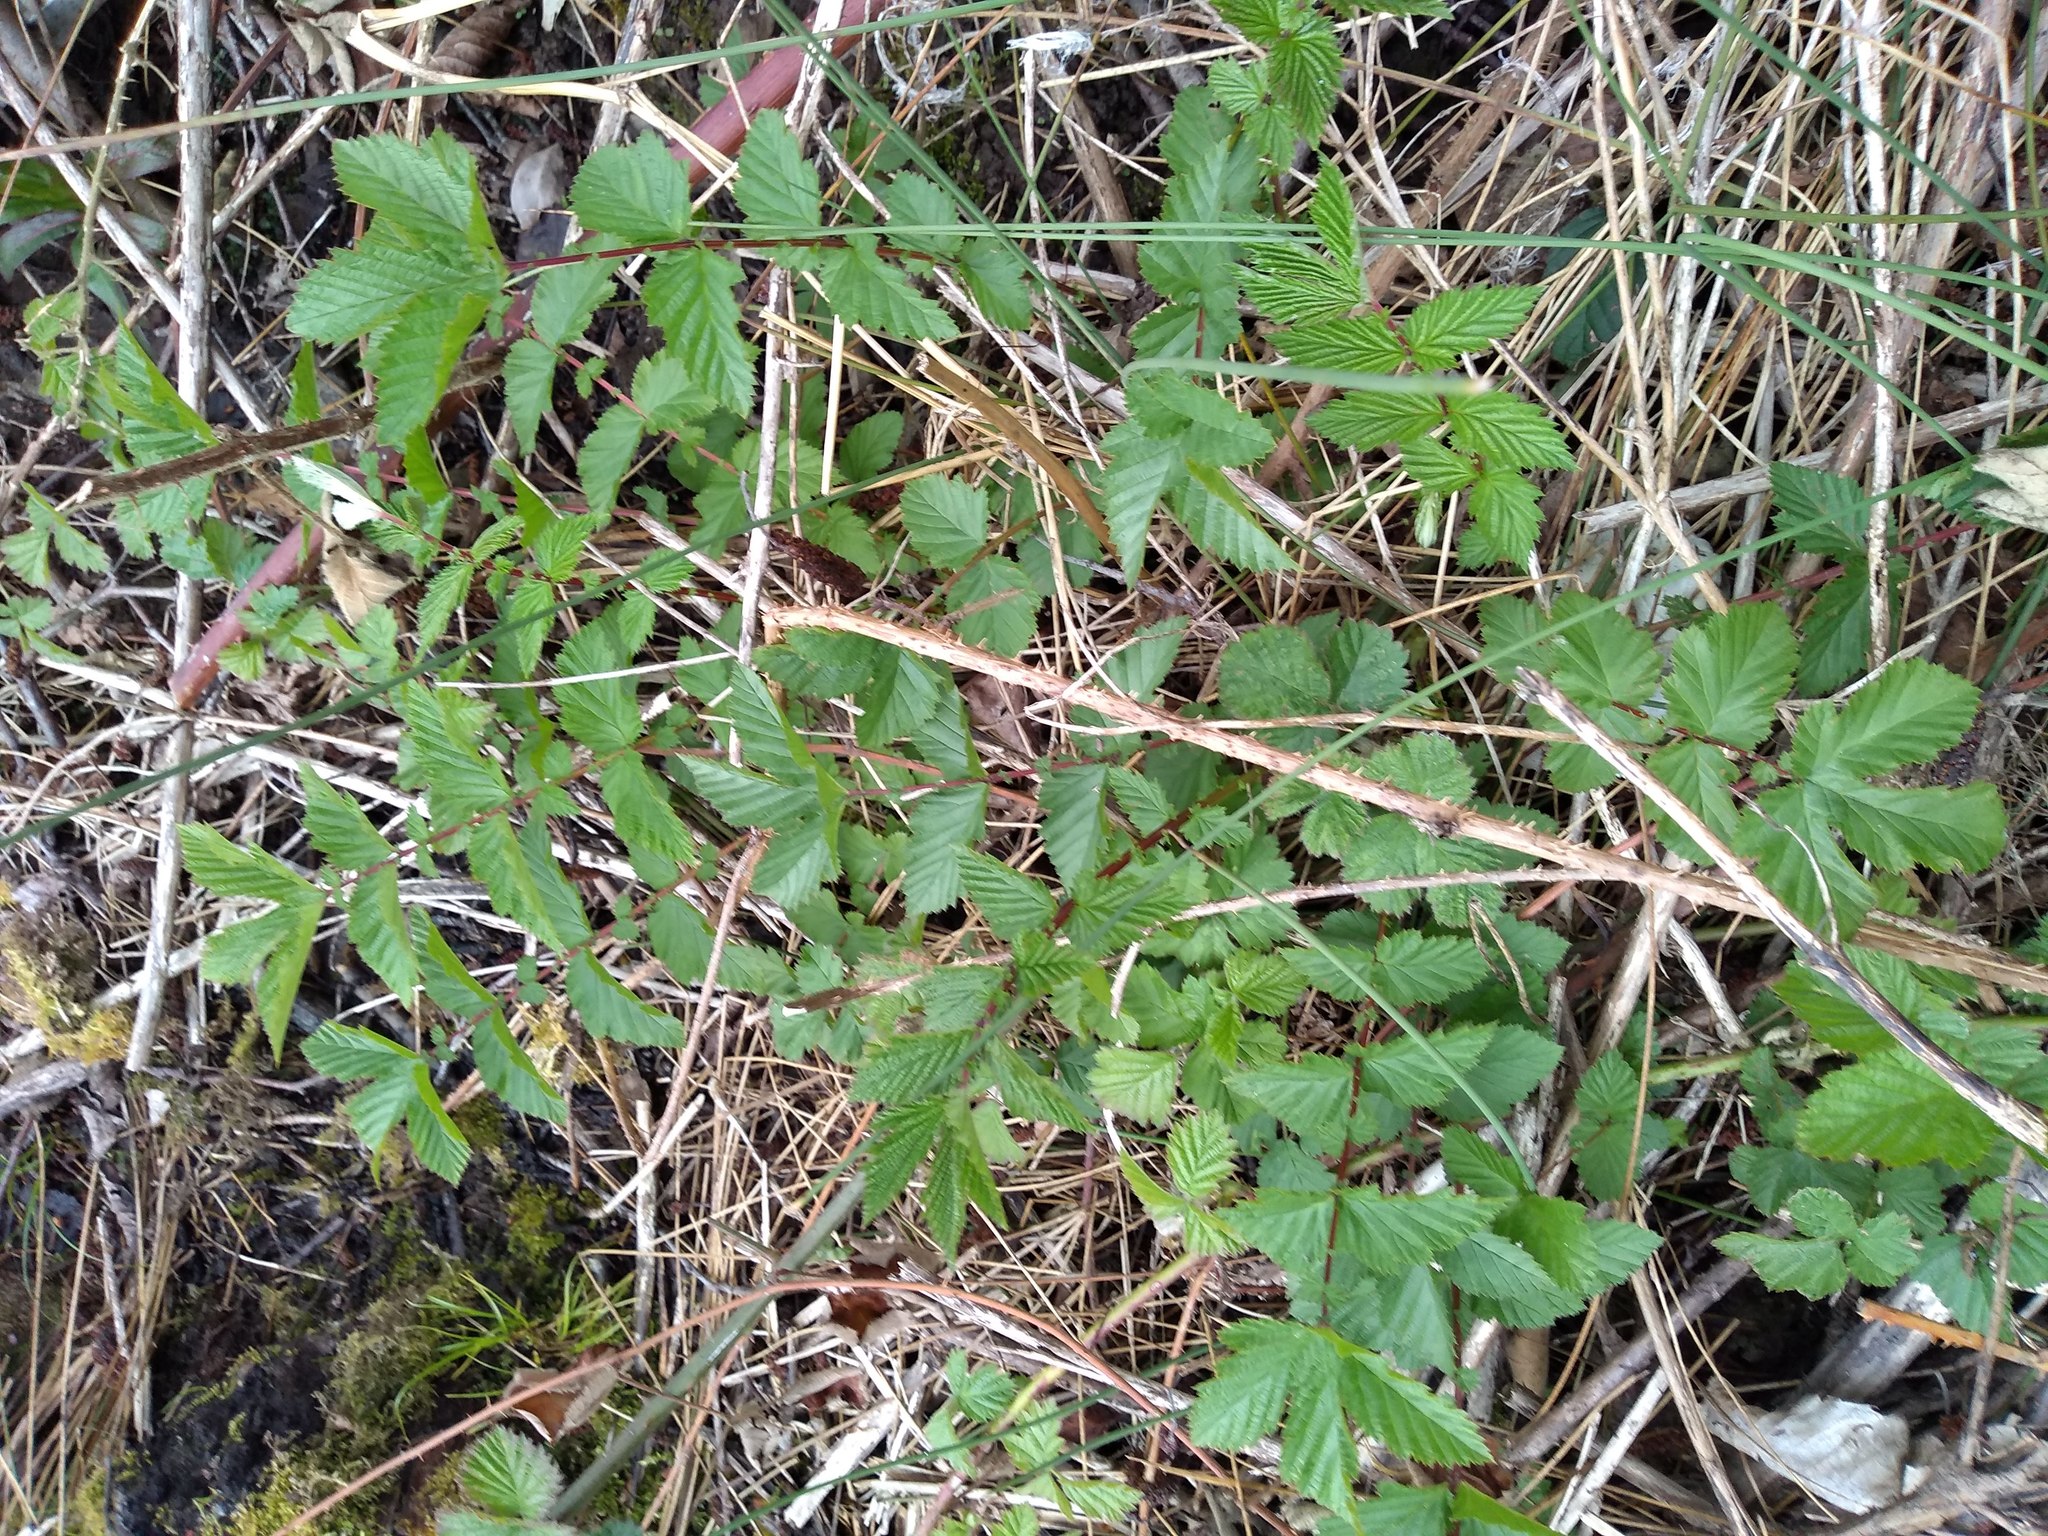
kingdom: Plantae
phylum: Tracheophyta
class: Magnoliopsida
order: Rosales
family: Rosaceae
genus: Filipendula
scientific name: Filipendula ulmaria
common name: Meadowsweet
